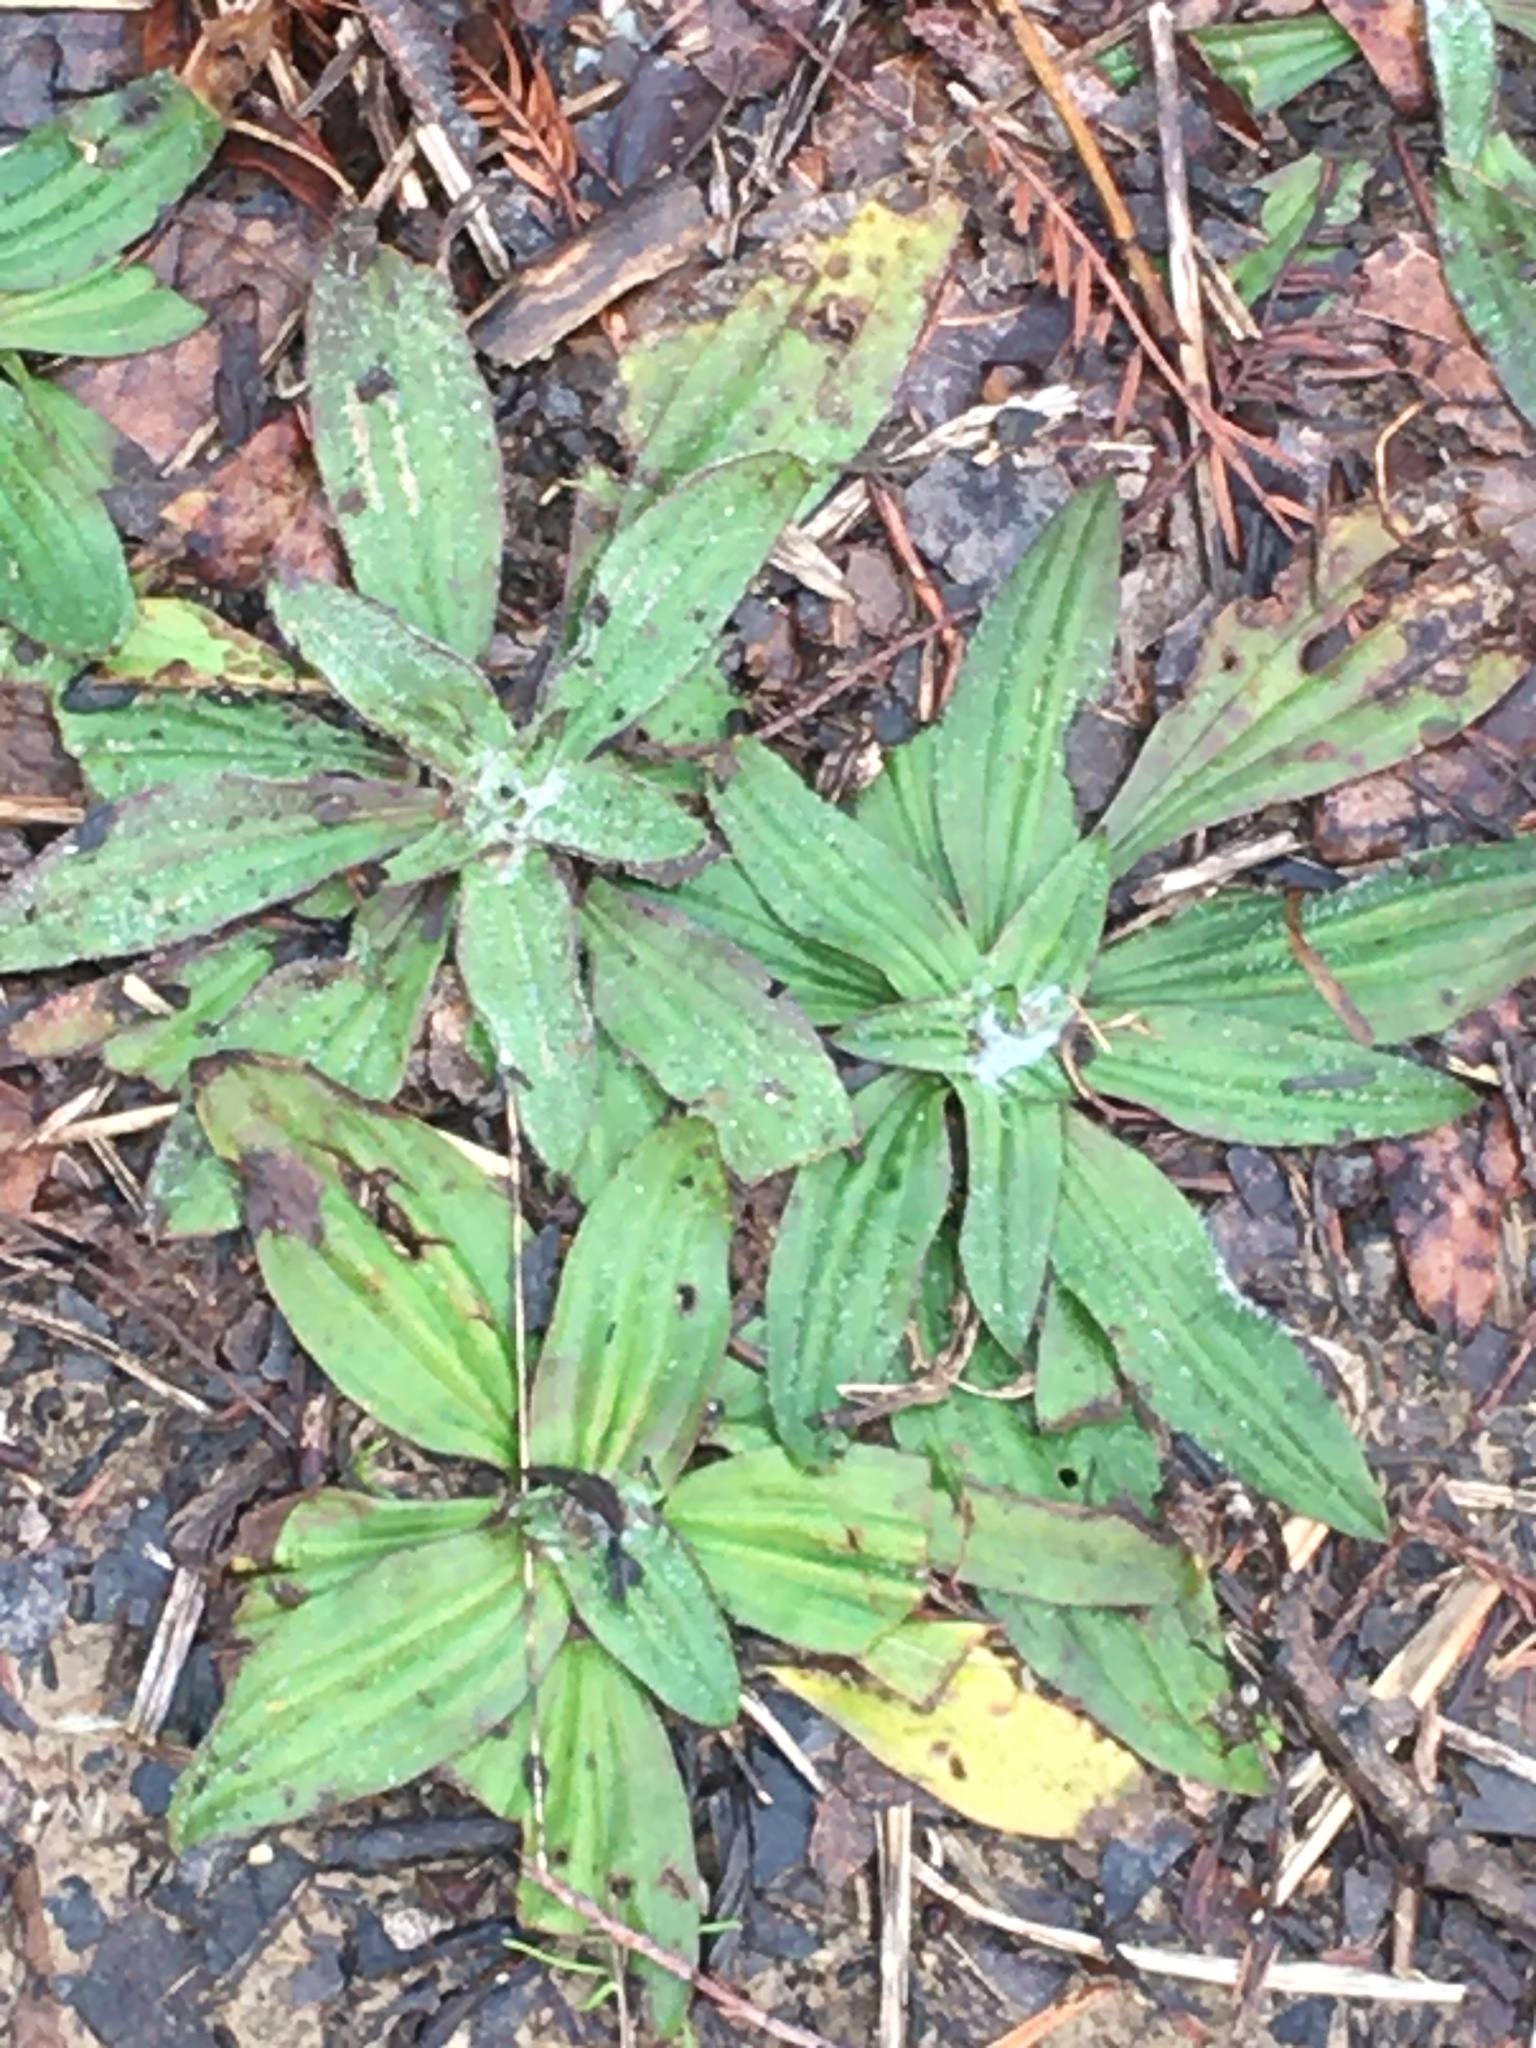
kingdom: Plantae
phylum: Tracheophyta
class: Magnoliopsida
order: Lamiales
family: Plantaginaceae
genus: Plantago
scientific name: Plantago lanceolata
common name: Ribwort plantain
